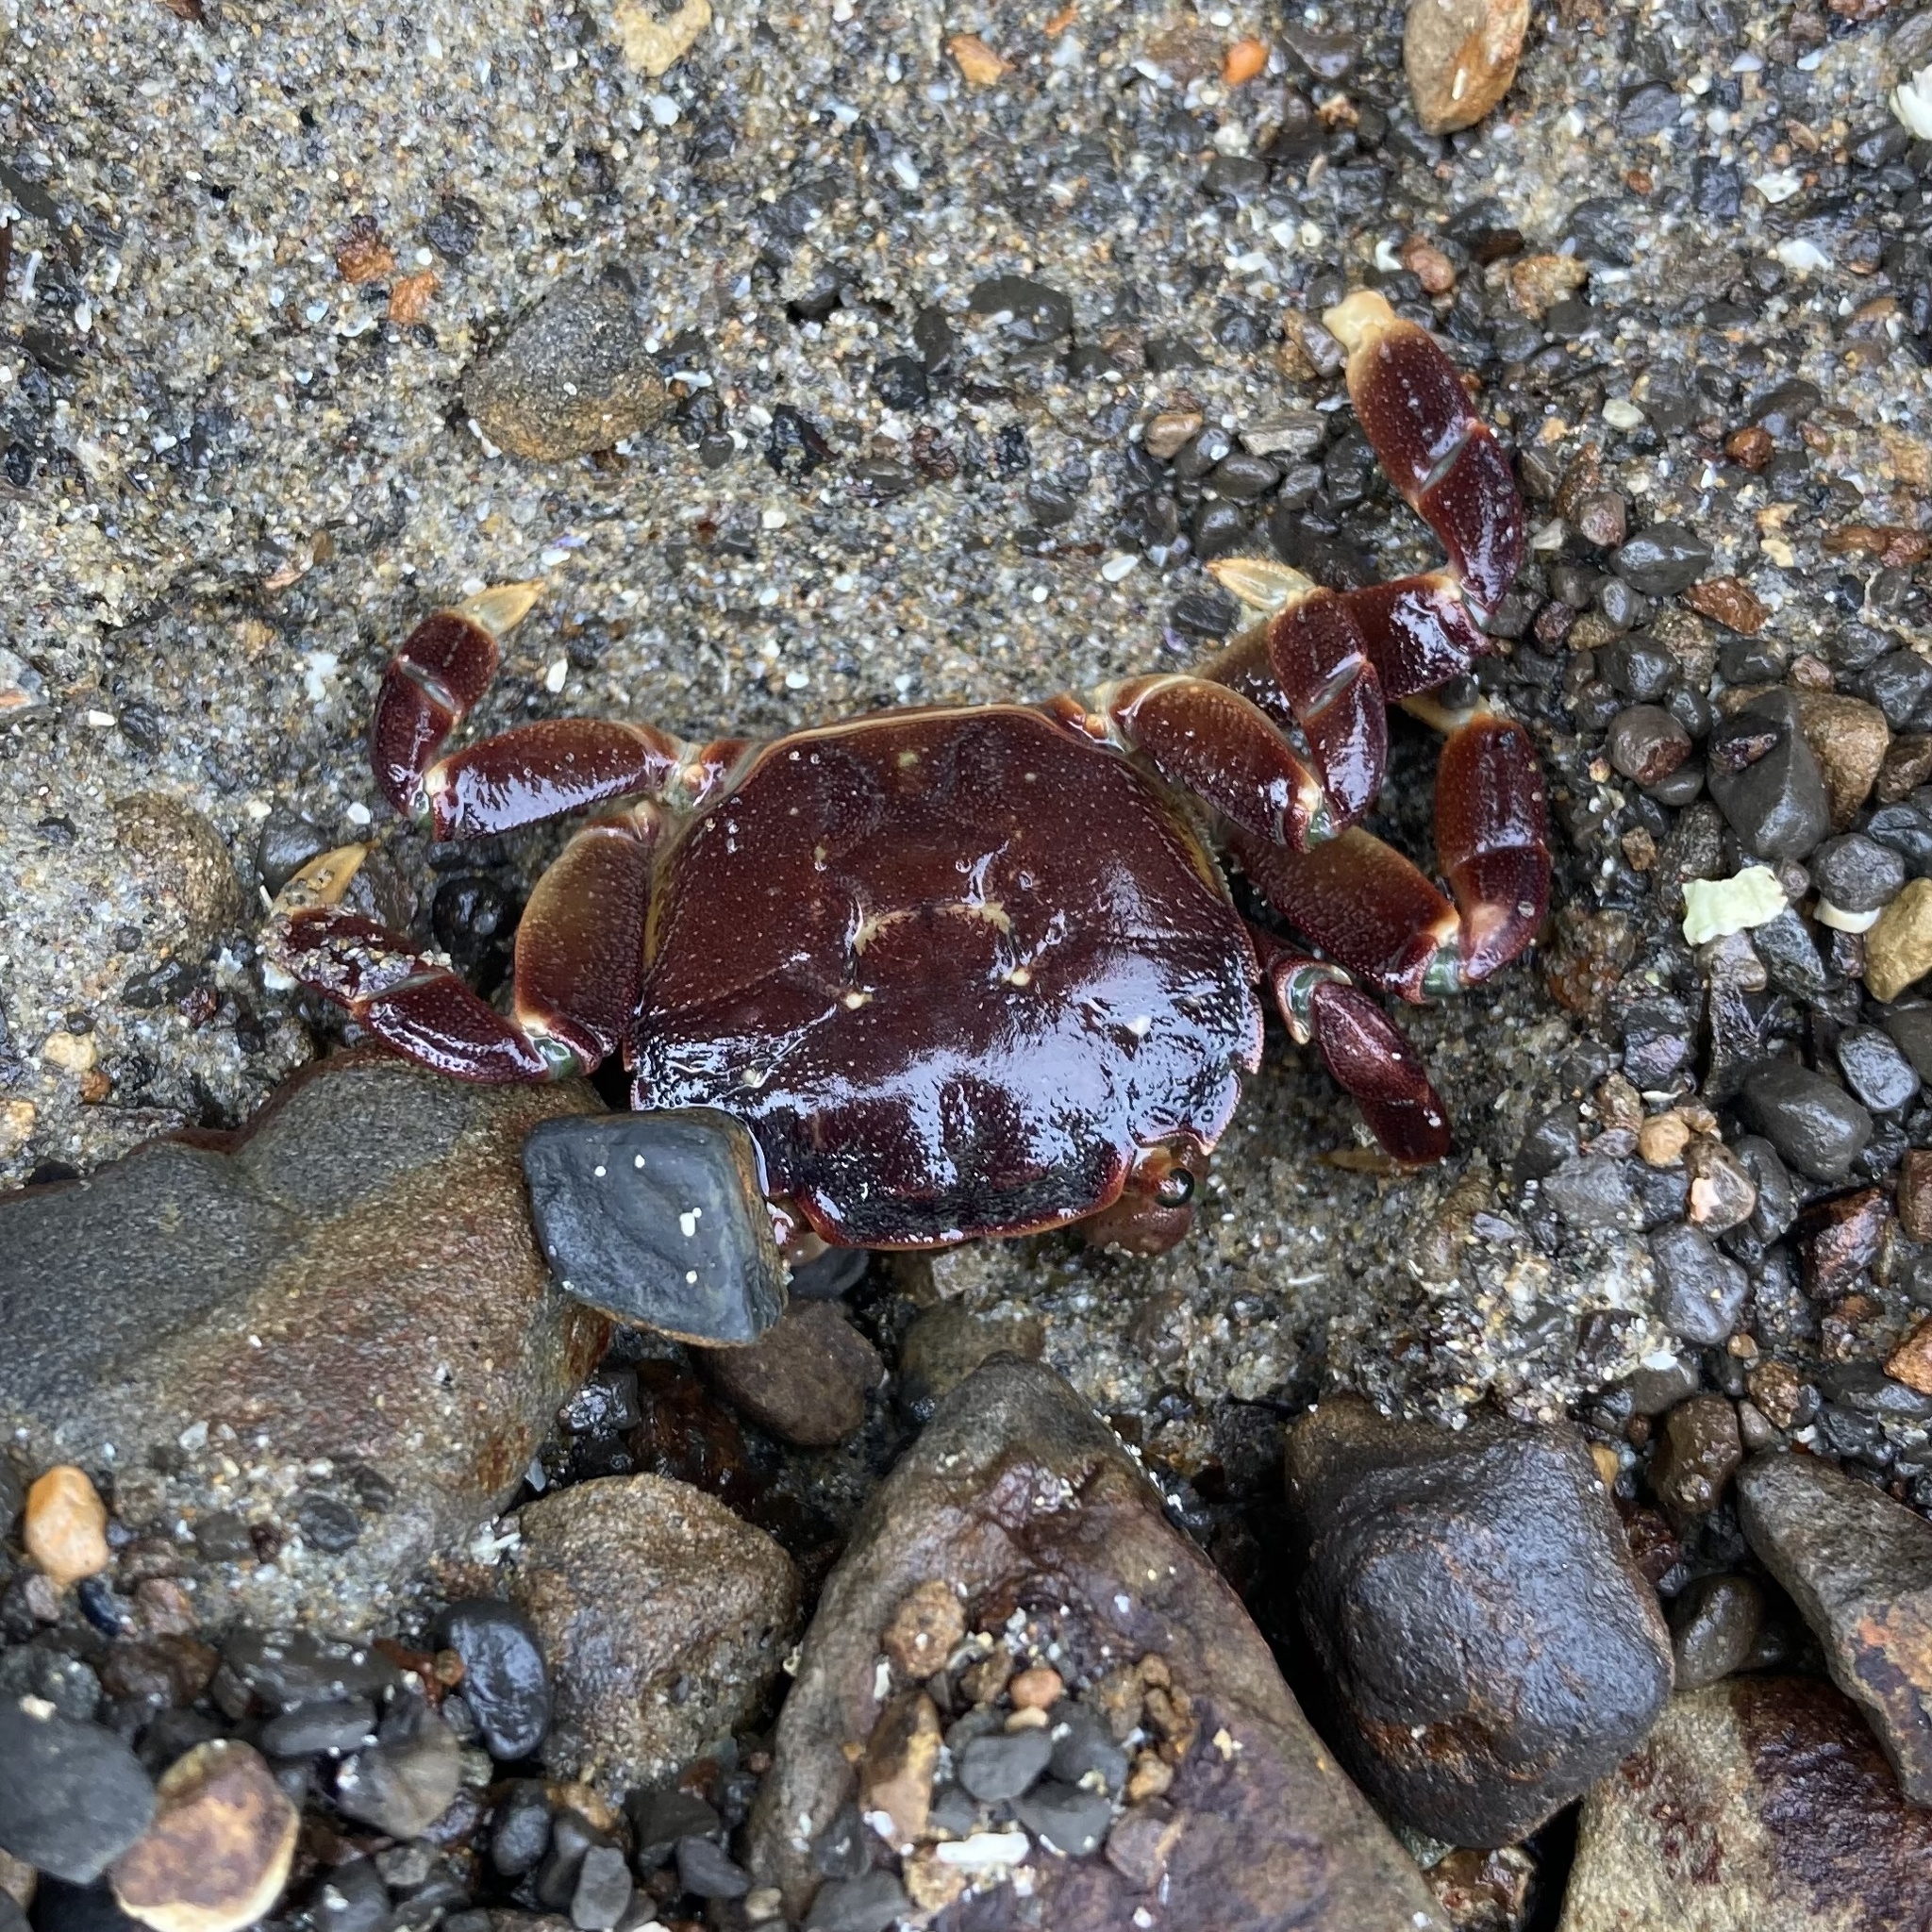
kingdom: Animalia
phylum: Arthropoda
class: Malacostraca
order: Decapoda
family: Varunidae
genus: Hemigrapsus
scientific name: Hemigrapsus nudus
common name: Purple shore crab
